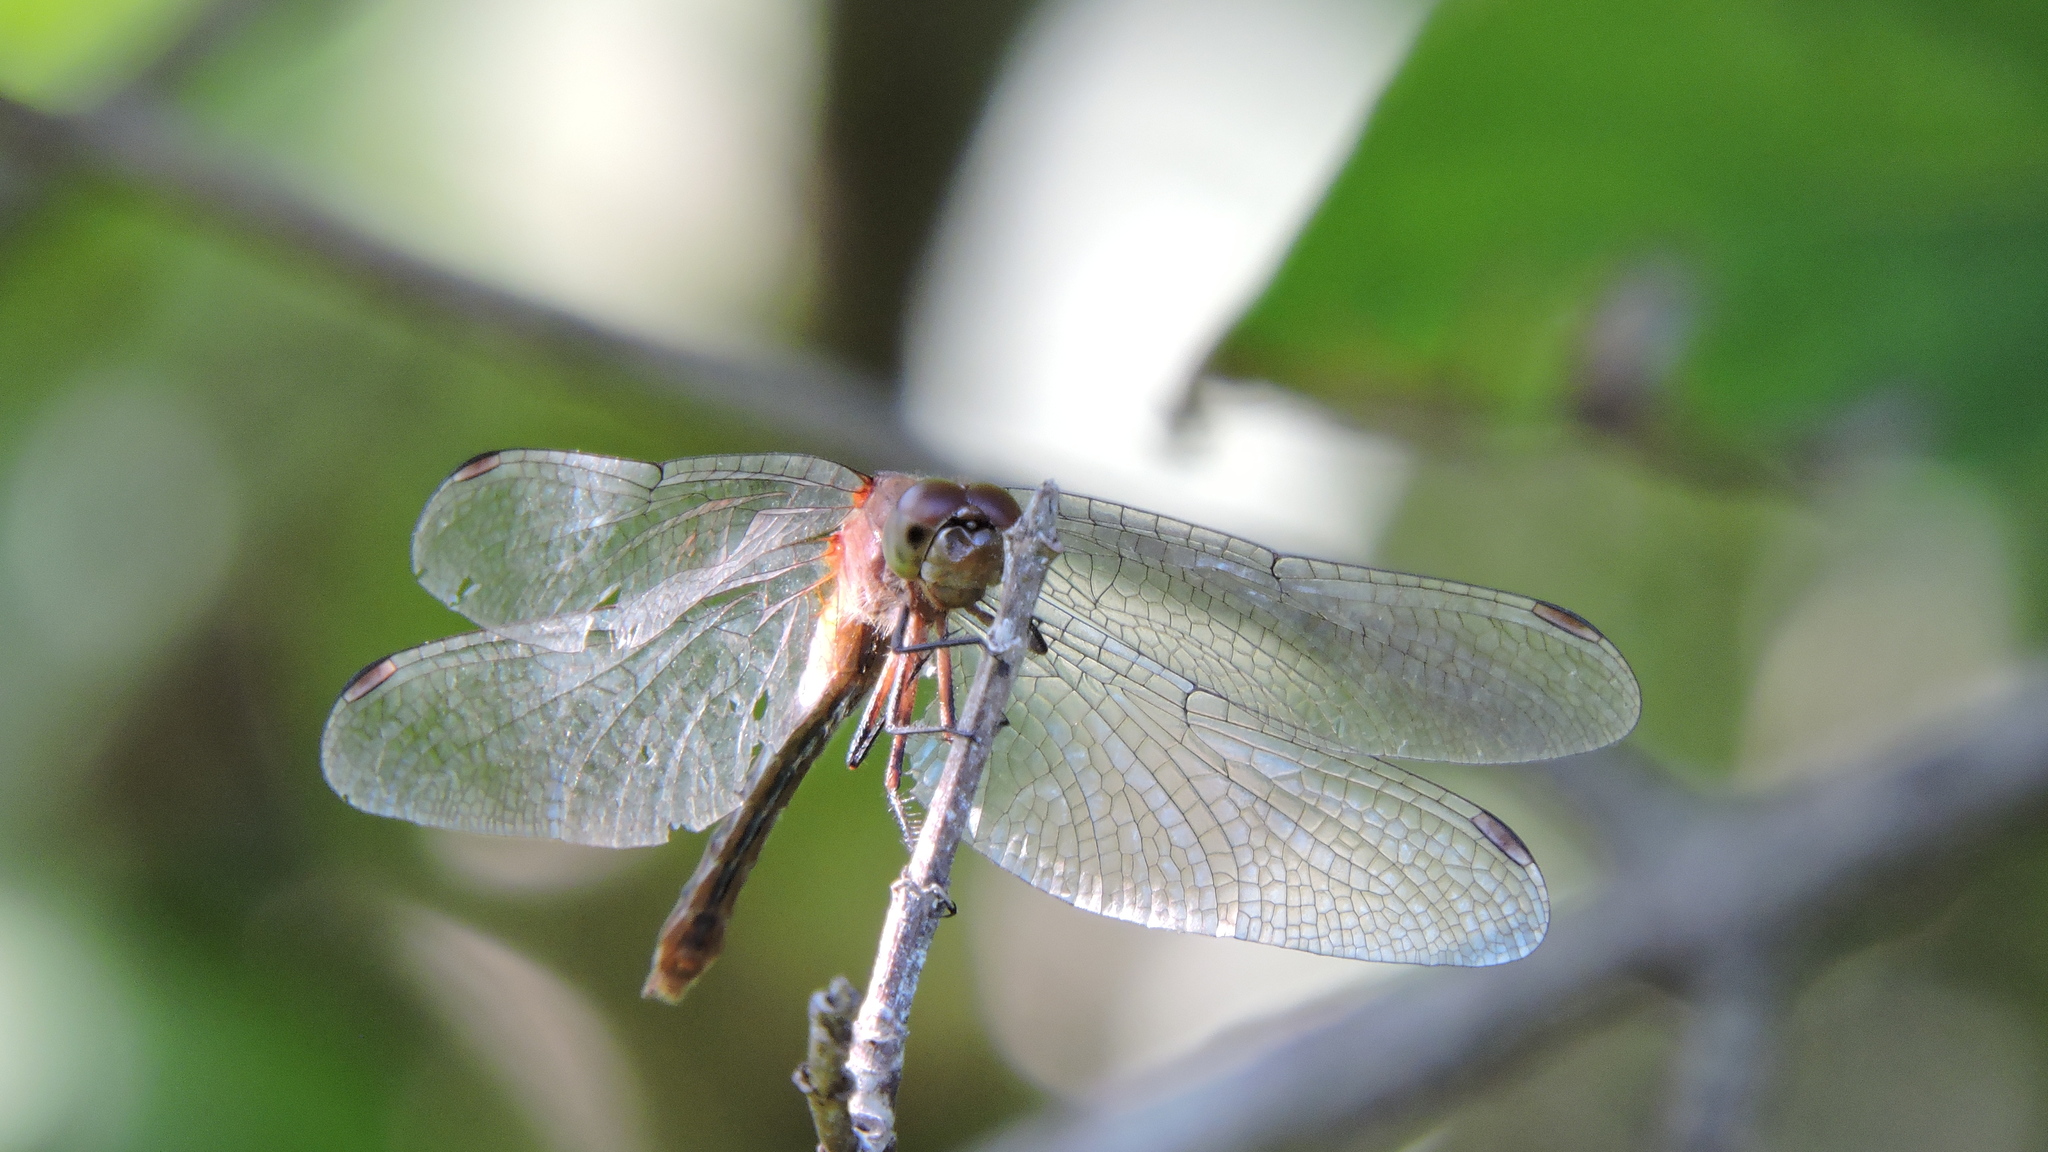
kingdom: Animalia
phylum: Arthropoda
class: Insecta
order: Odonata
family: Libellulidae
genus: Sympetrum
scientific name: Sympetrum
